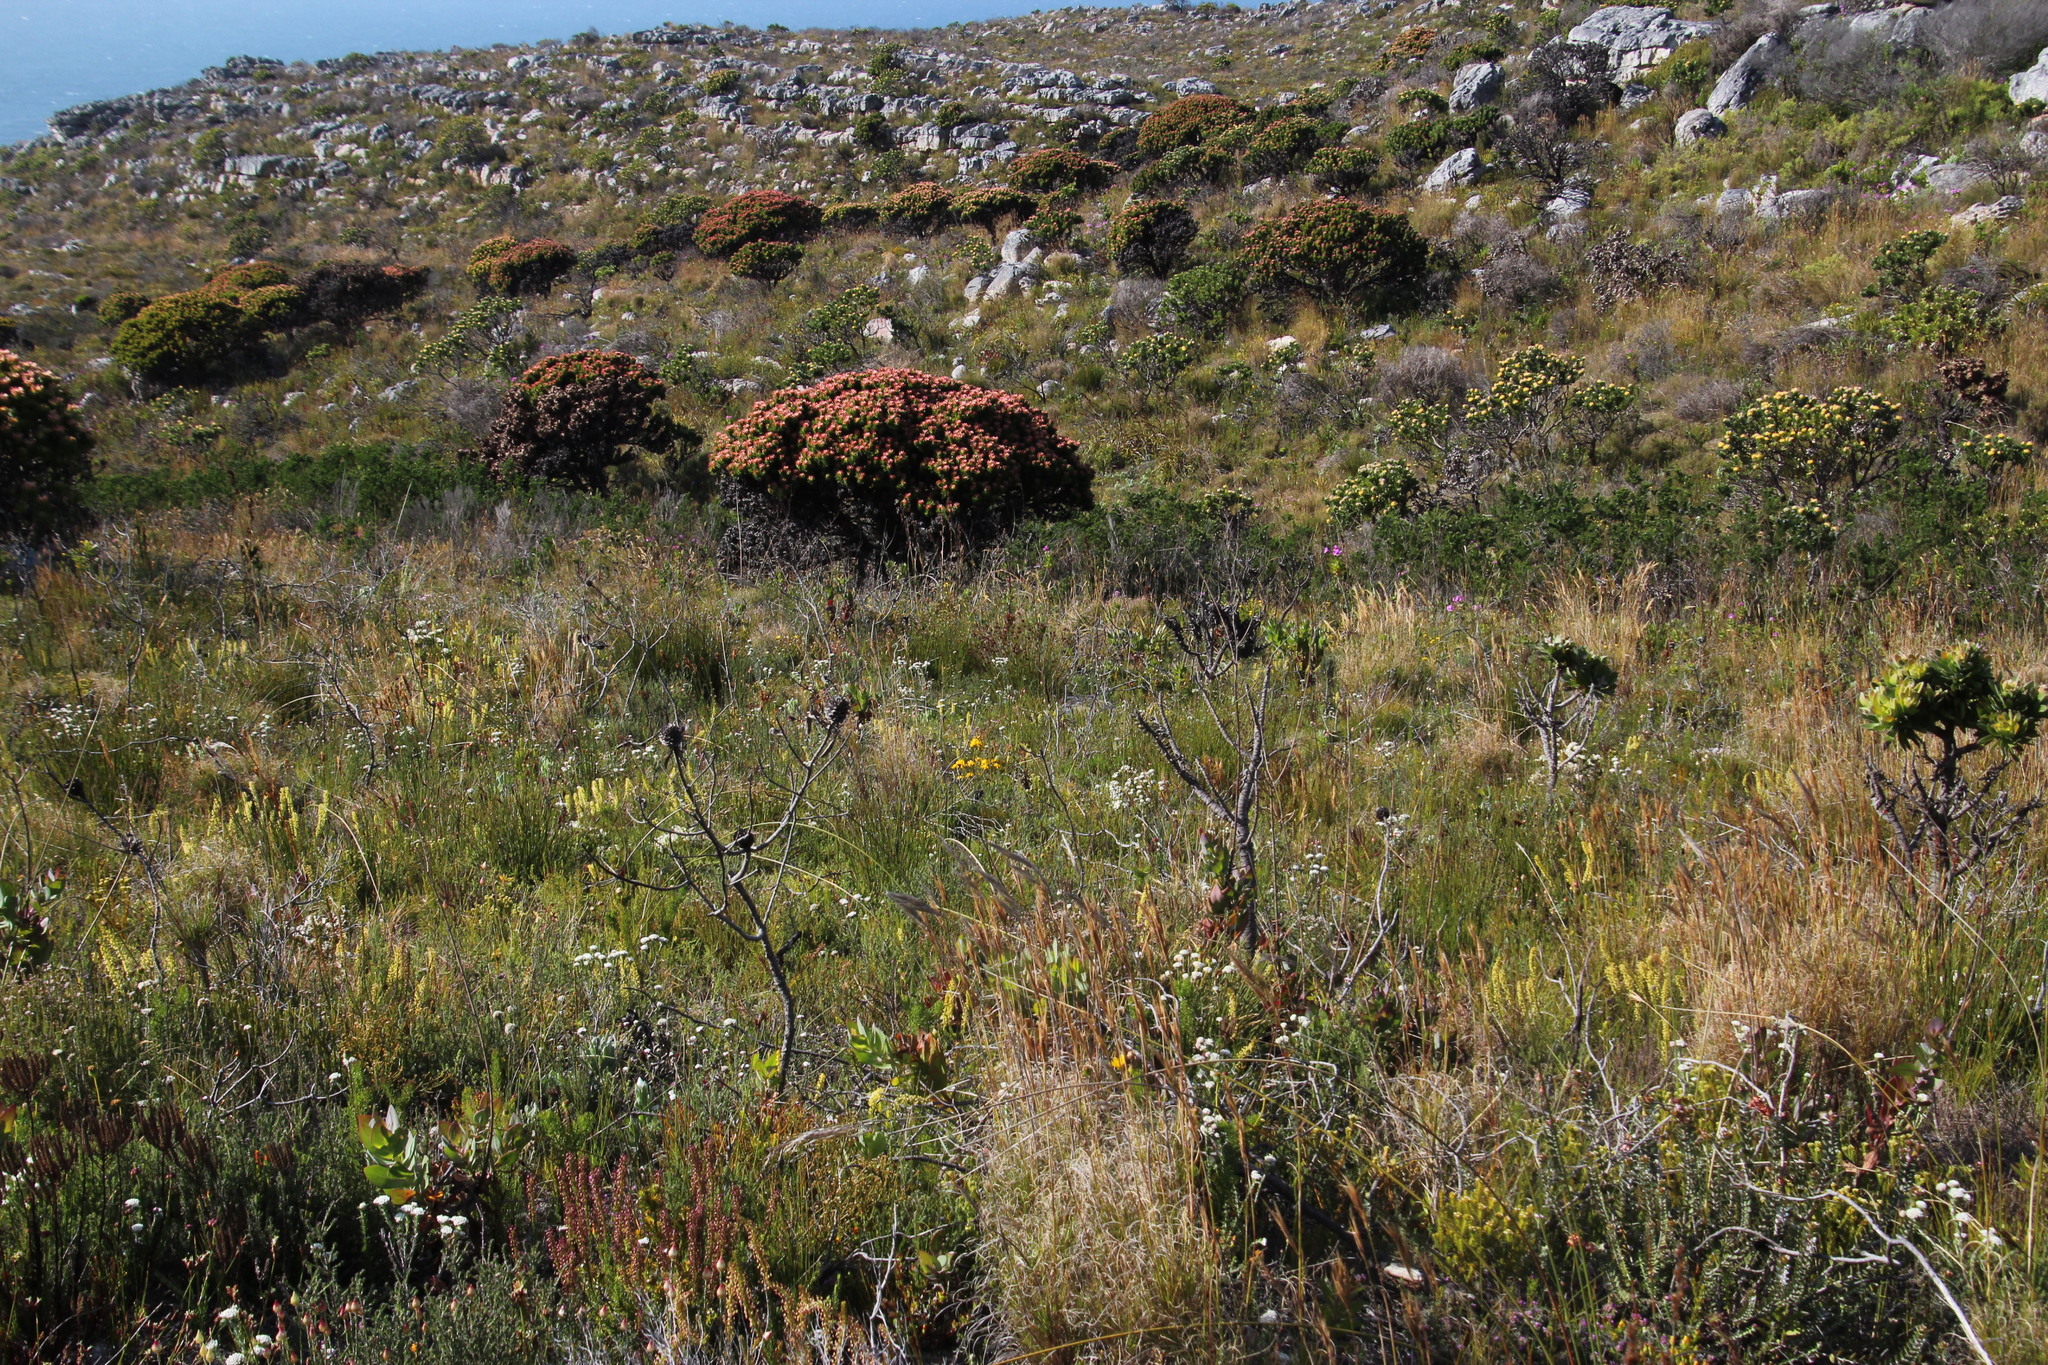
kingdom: Plantae
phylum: Tracheophyta
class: Magnoliopsida
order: Fabales
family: Fabaceae
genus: Aspalathus
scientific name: Aspalathus carnosa
